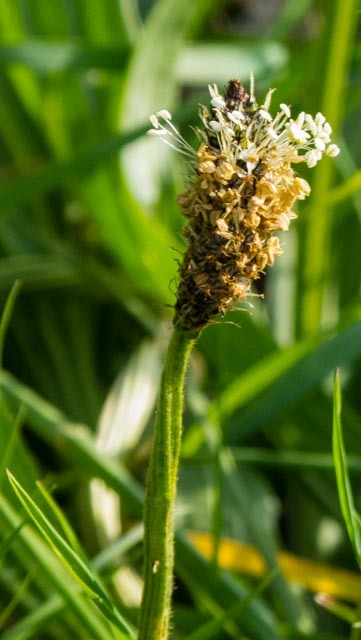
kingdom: Plantae
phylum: Tracheophyta
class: Magnoliopsida
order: Lamiales
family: Plantaginaceae
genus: Plantago
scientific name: Plantago lanceolata
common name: Ribwort plantain
